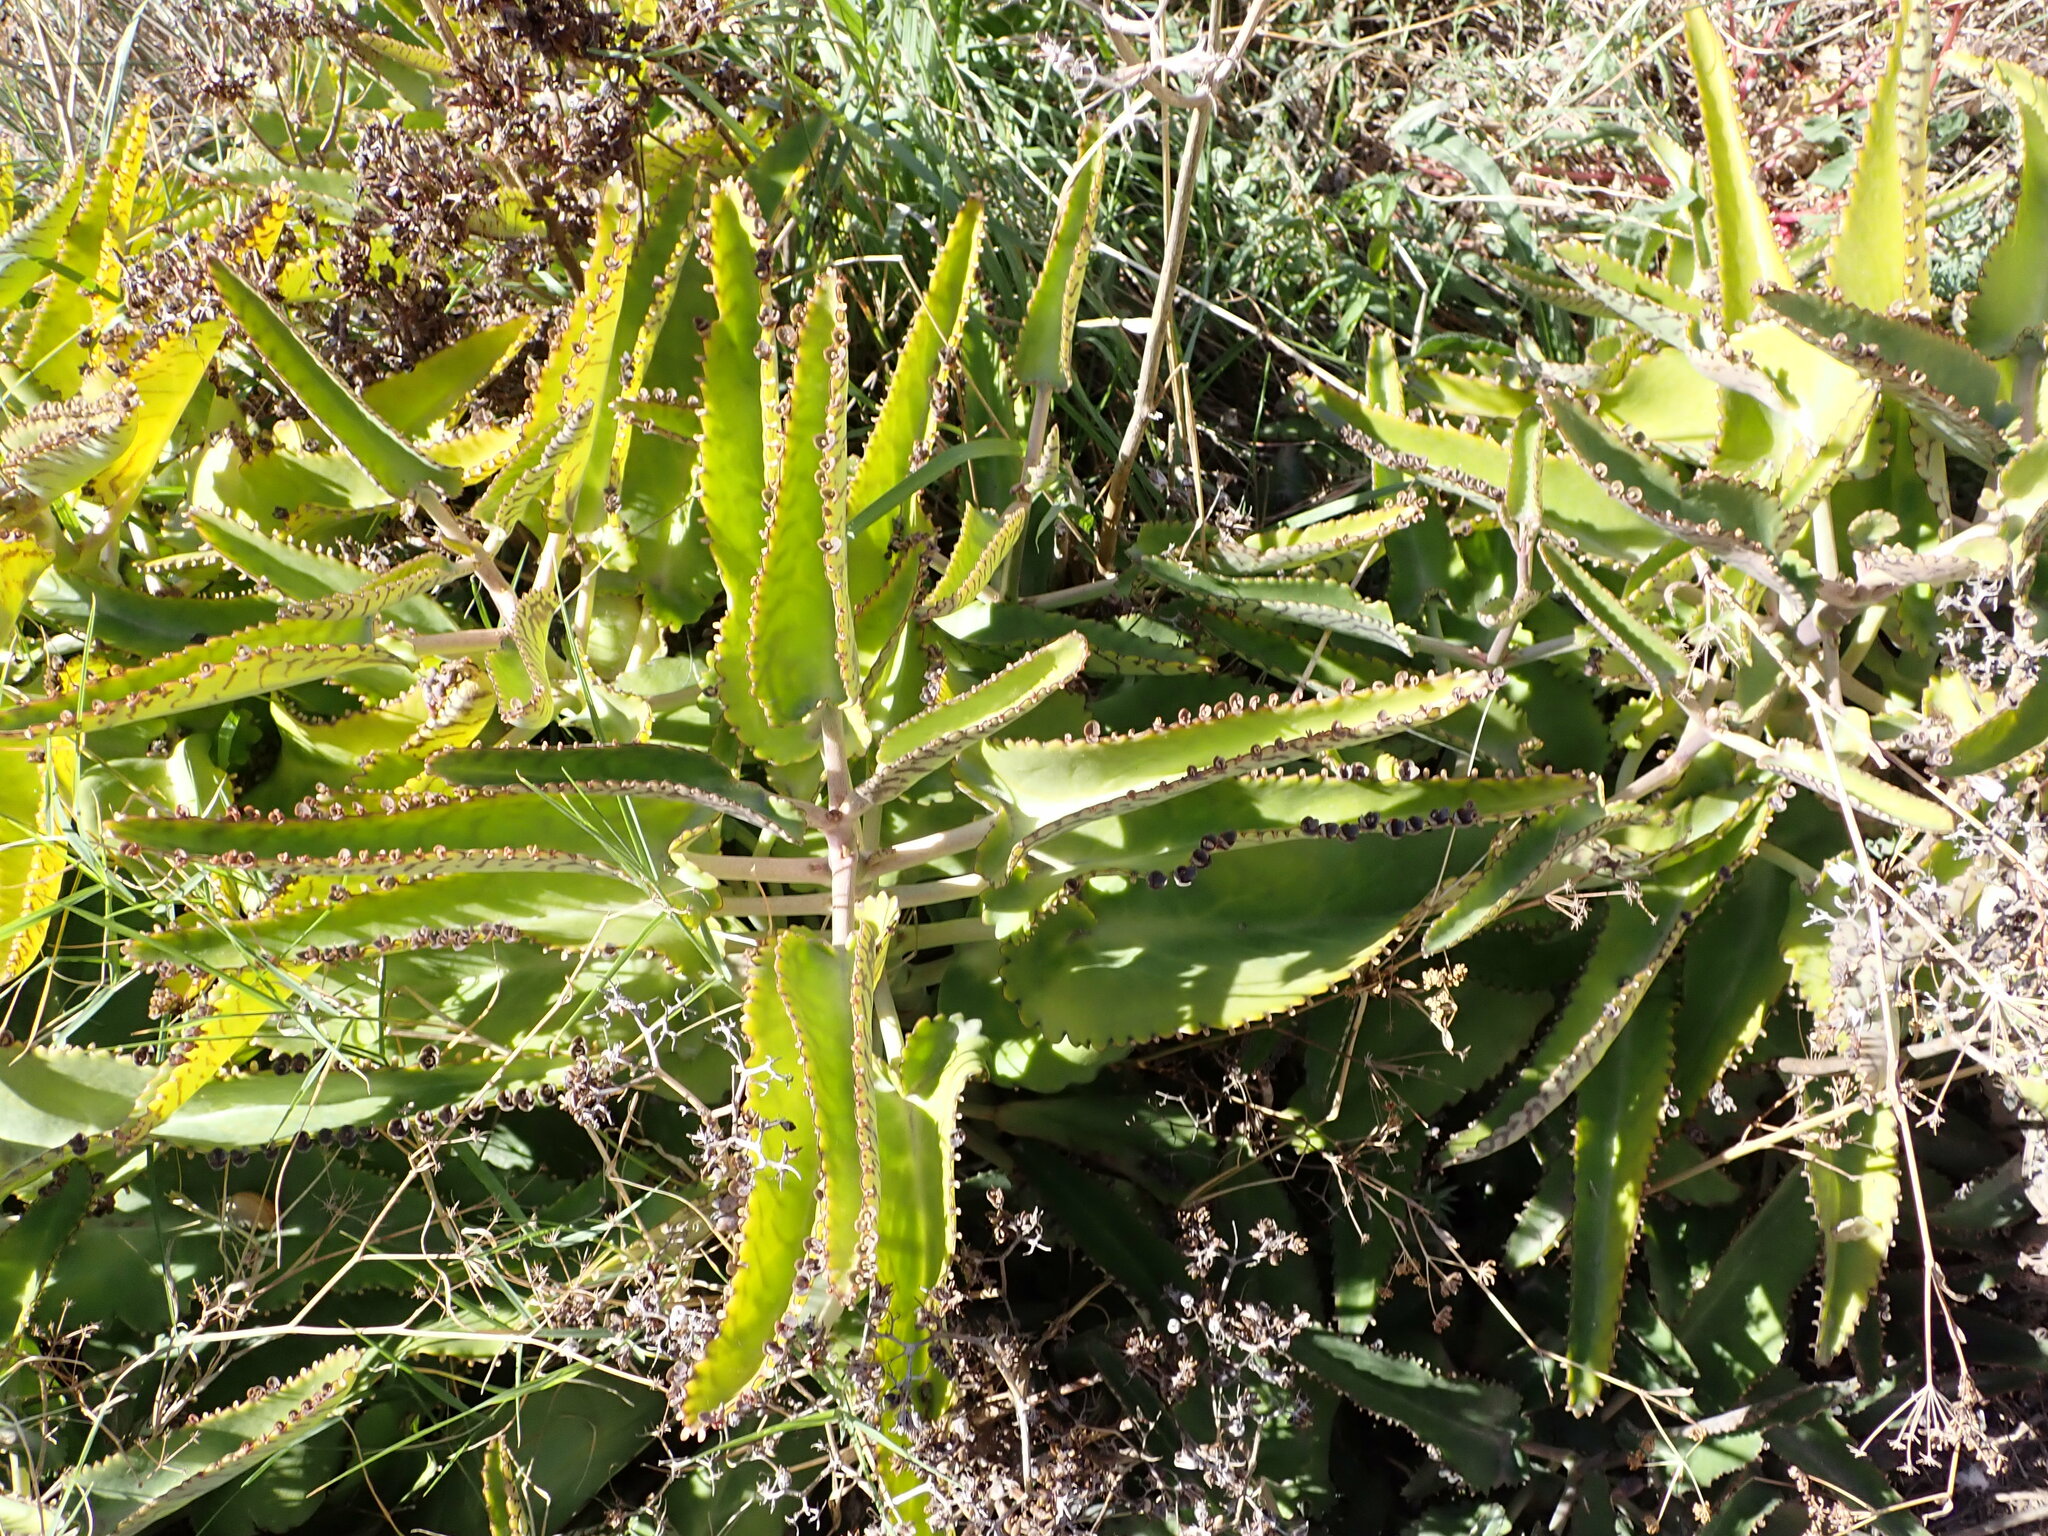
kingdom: Plantae
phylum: Tracheophyta
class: Magnoliopsida
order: Saxifragales
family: Crassulaceae
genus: Kalanchoe
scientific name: Kalanchoe daigremontiana
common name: Devil's backbone
